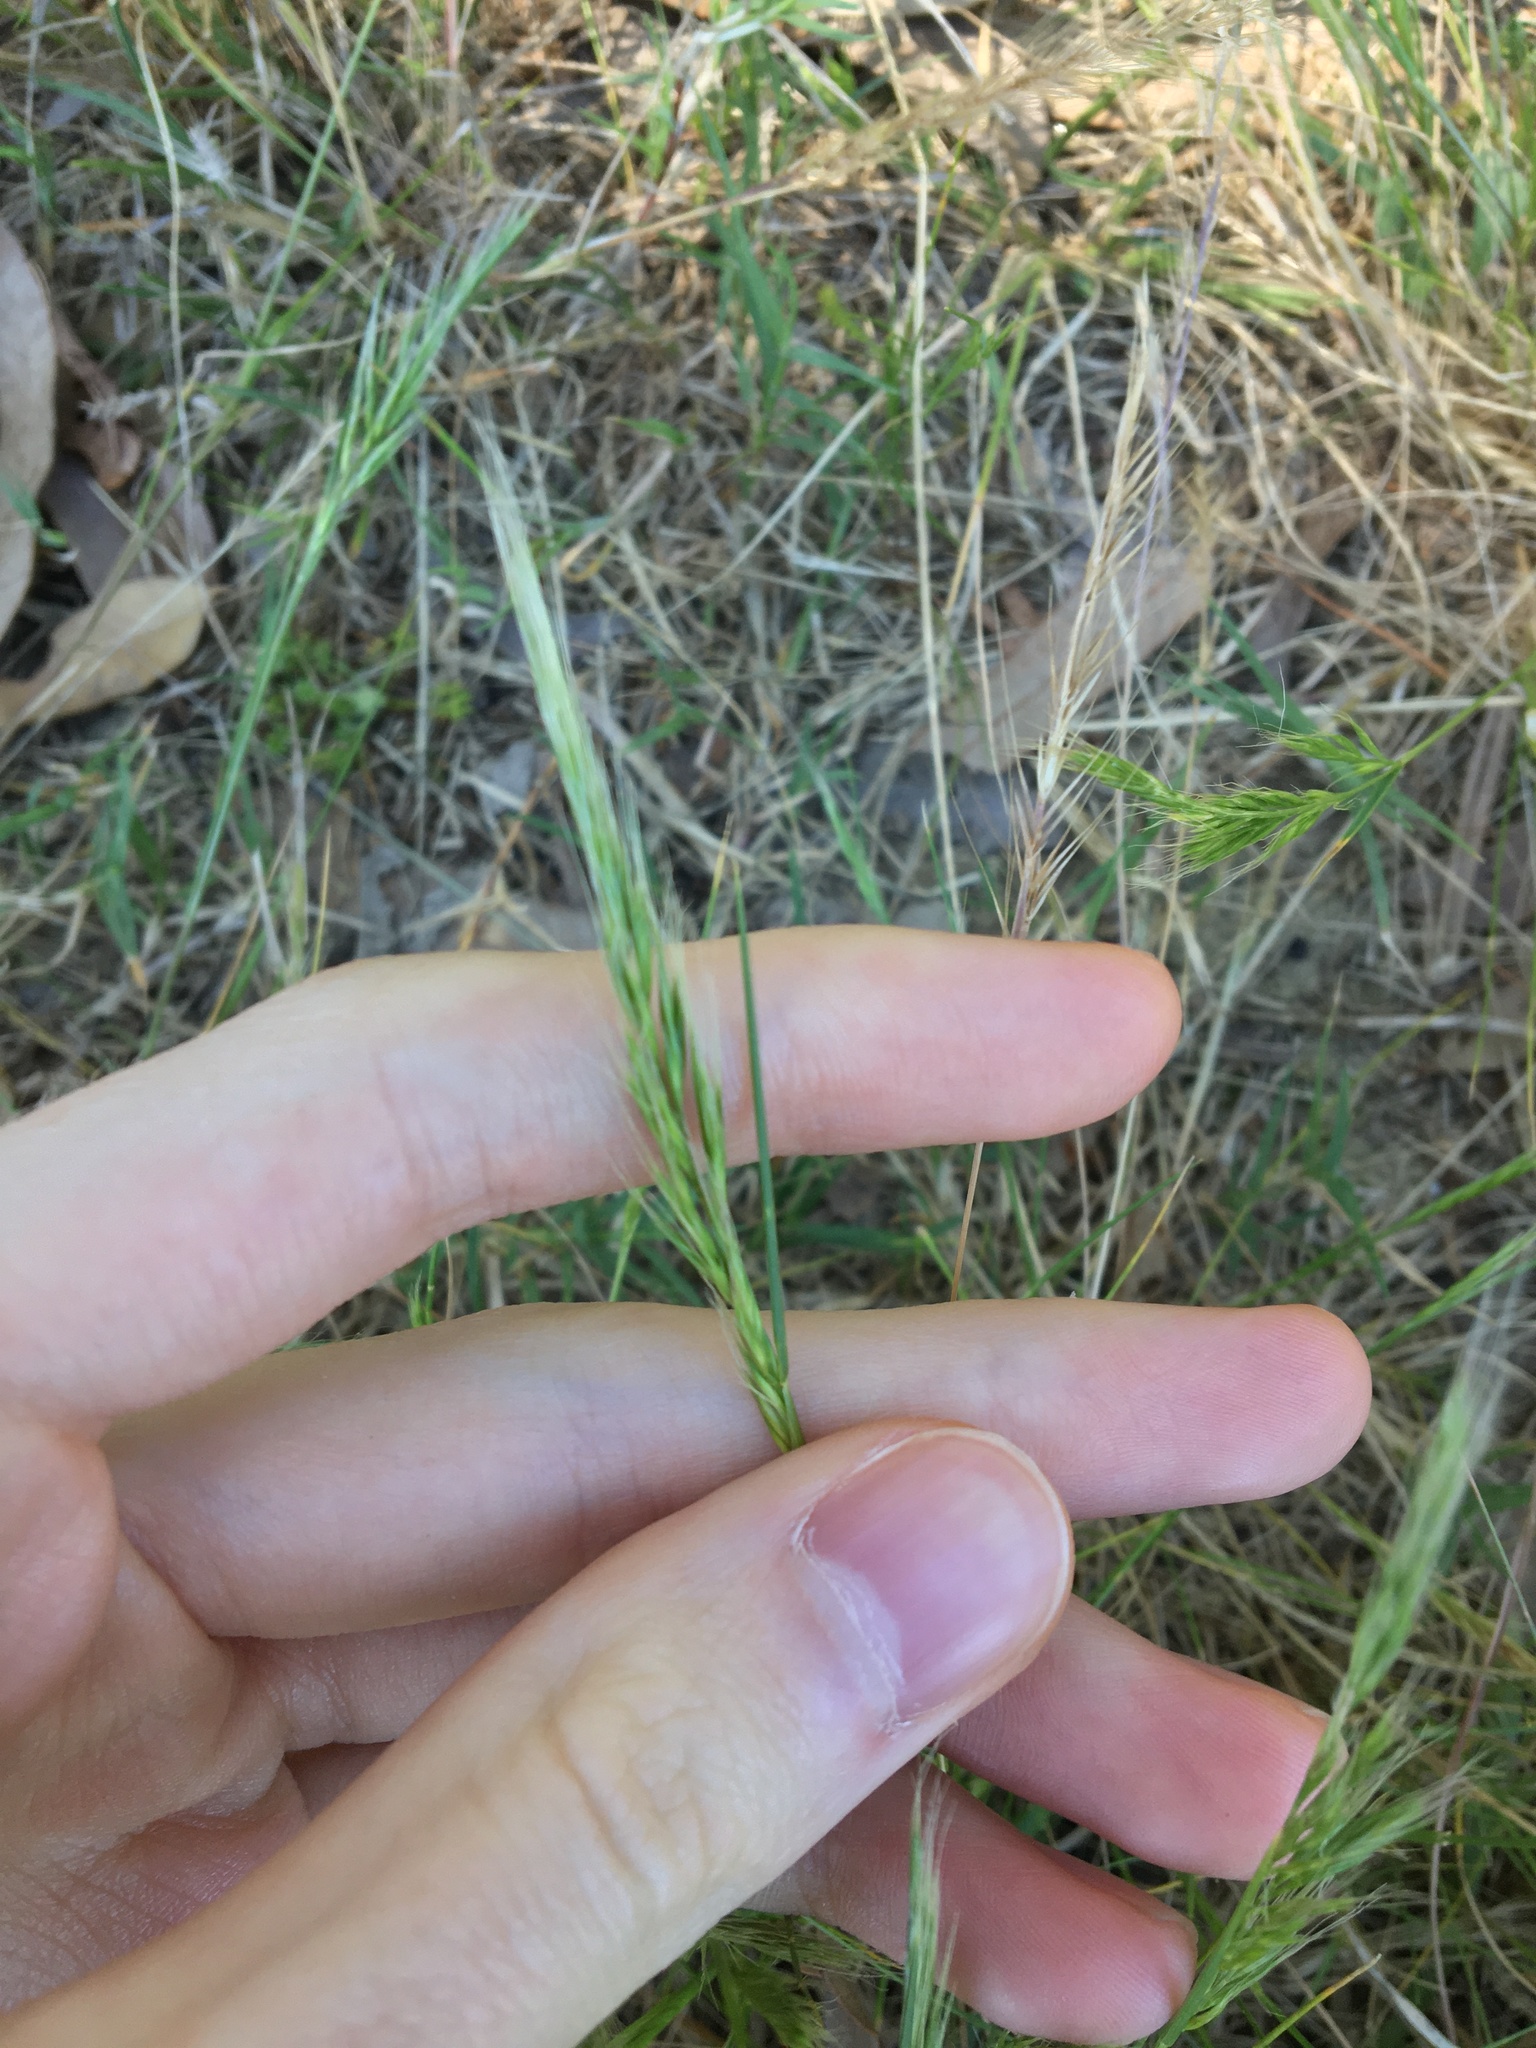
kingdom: Plantae
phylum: Tracheophyta
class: Liliopsida
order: Poales
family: Poaceae
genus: Festuca
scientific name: Festuca myuros
